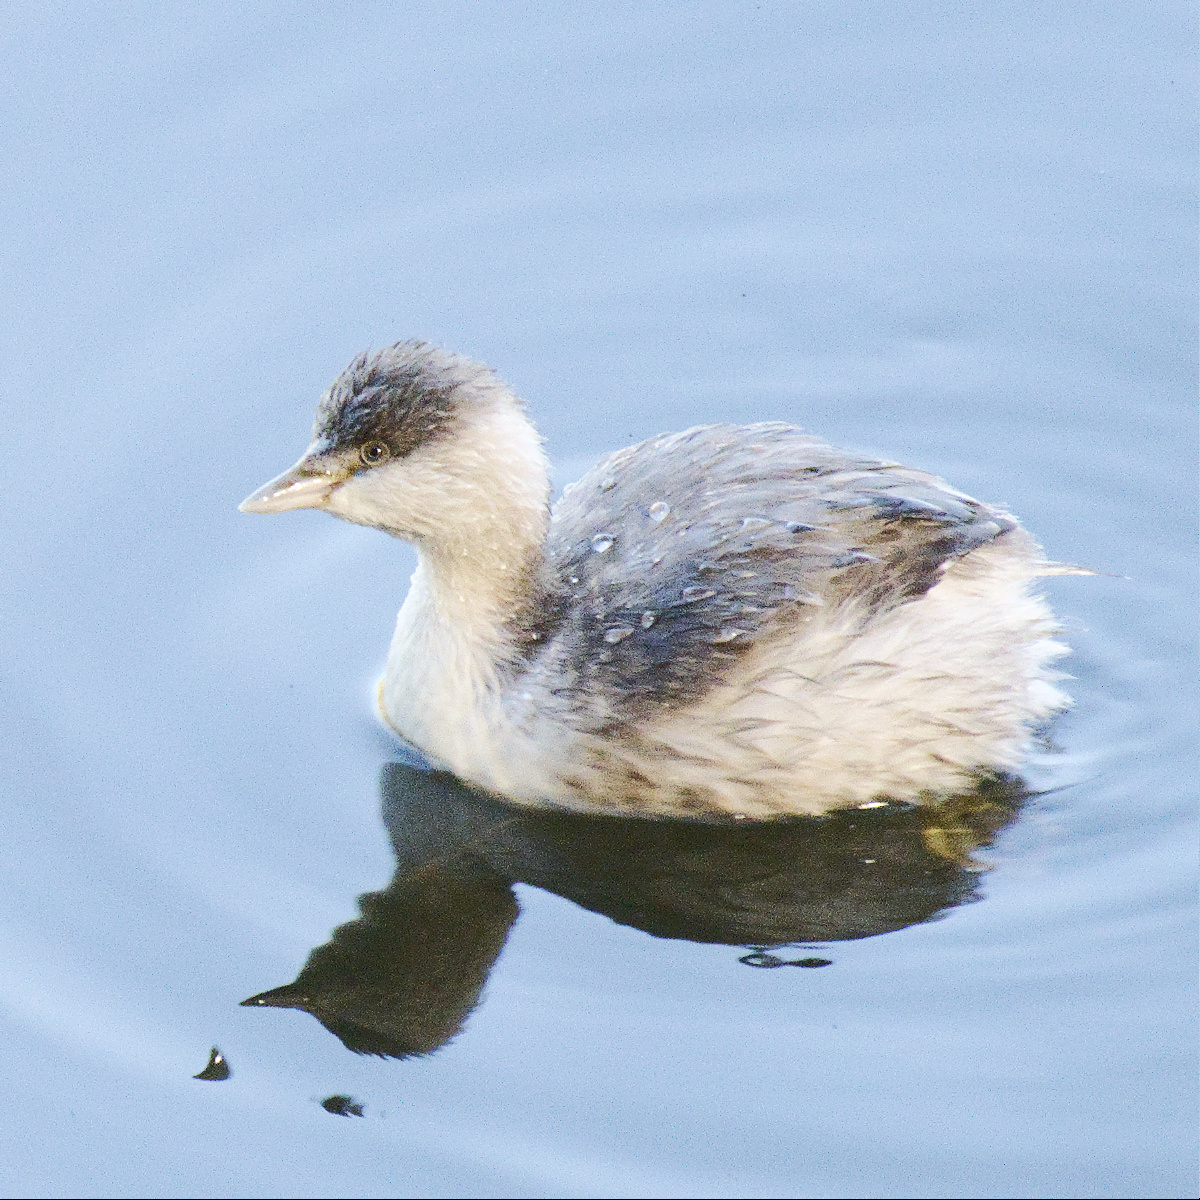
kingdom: Animalia
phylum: Chordata
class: Aves
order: Podicipediformes
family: Podicipedidae
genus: Poliocephalus
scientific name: Poliocephalus poliocephalus
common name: Hoary-headed grebe
